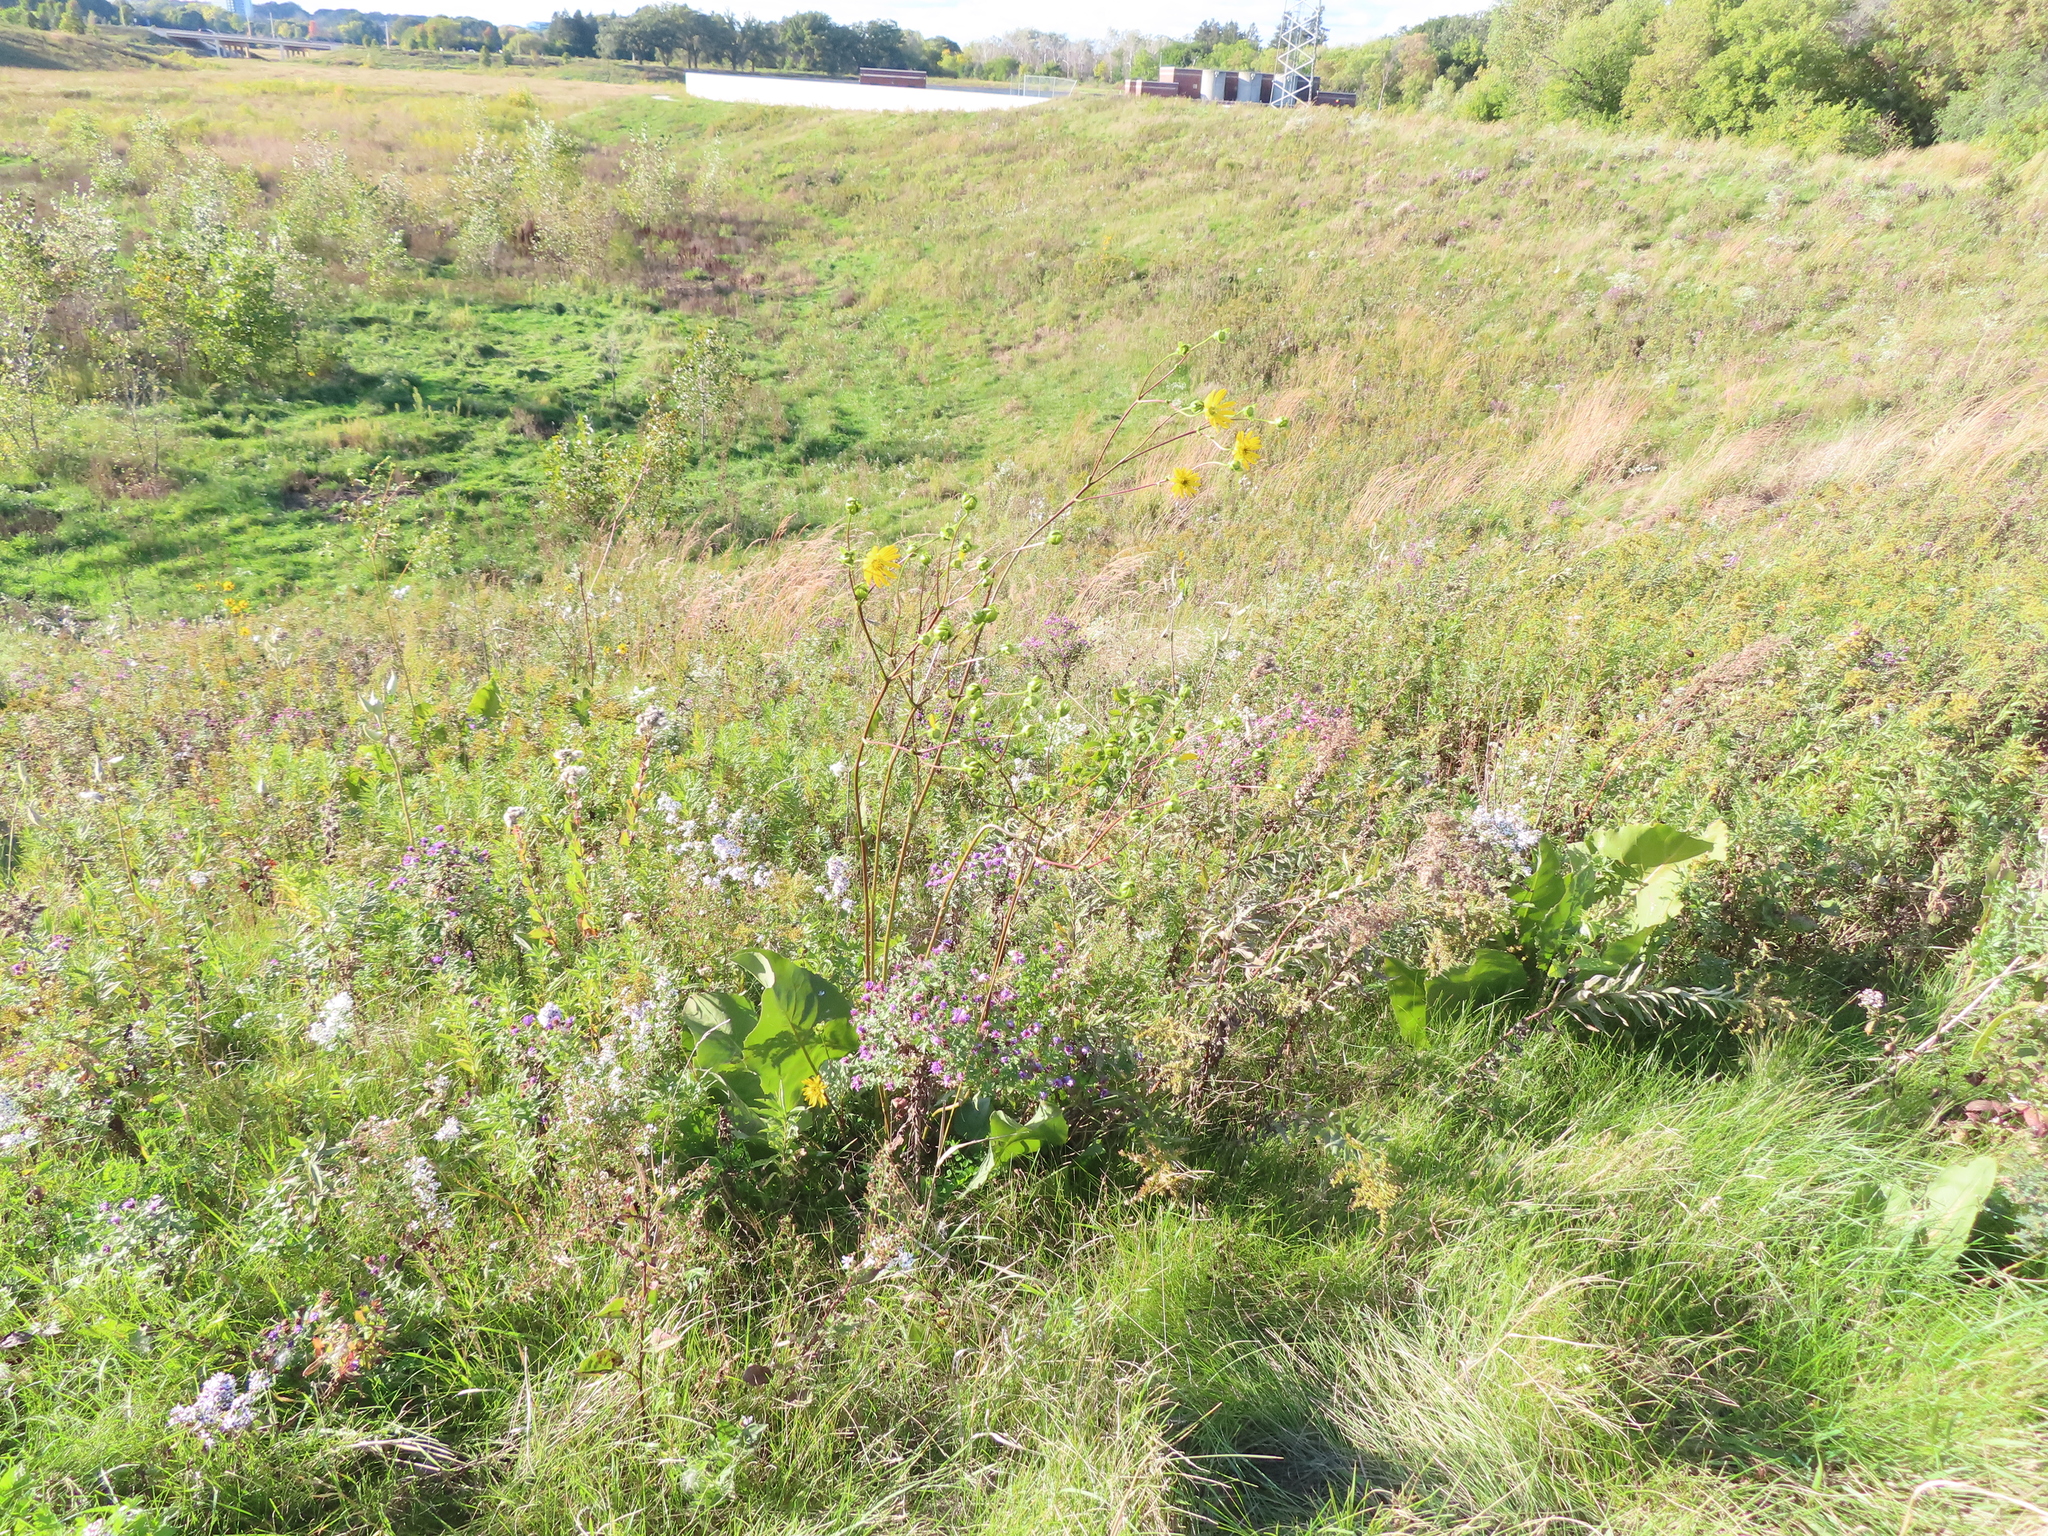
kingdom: Plantae
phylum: Tracheophyta
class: Magnoliopsida
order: Asterales
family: Asteraceae
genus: Silphium
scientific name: Silphium terebinthinaceum
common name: Basal-leaf rosinweed
